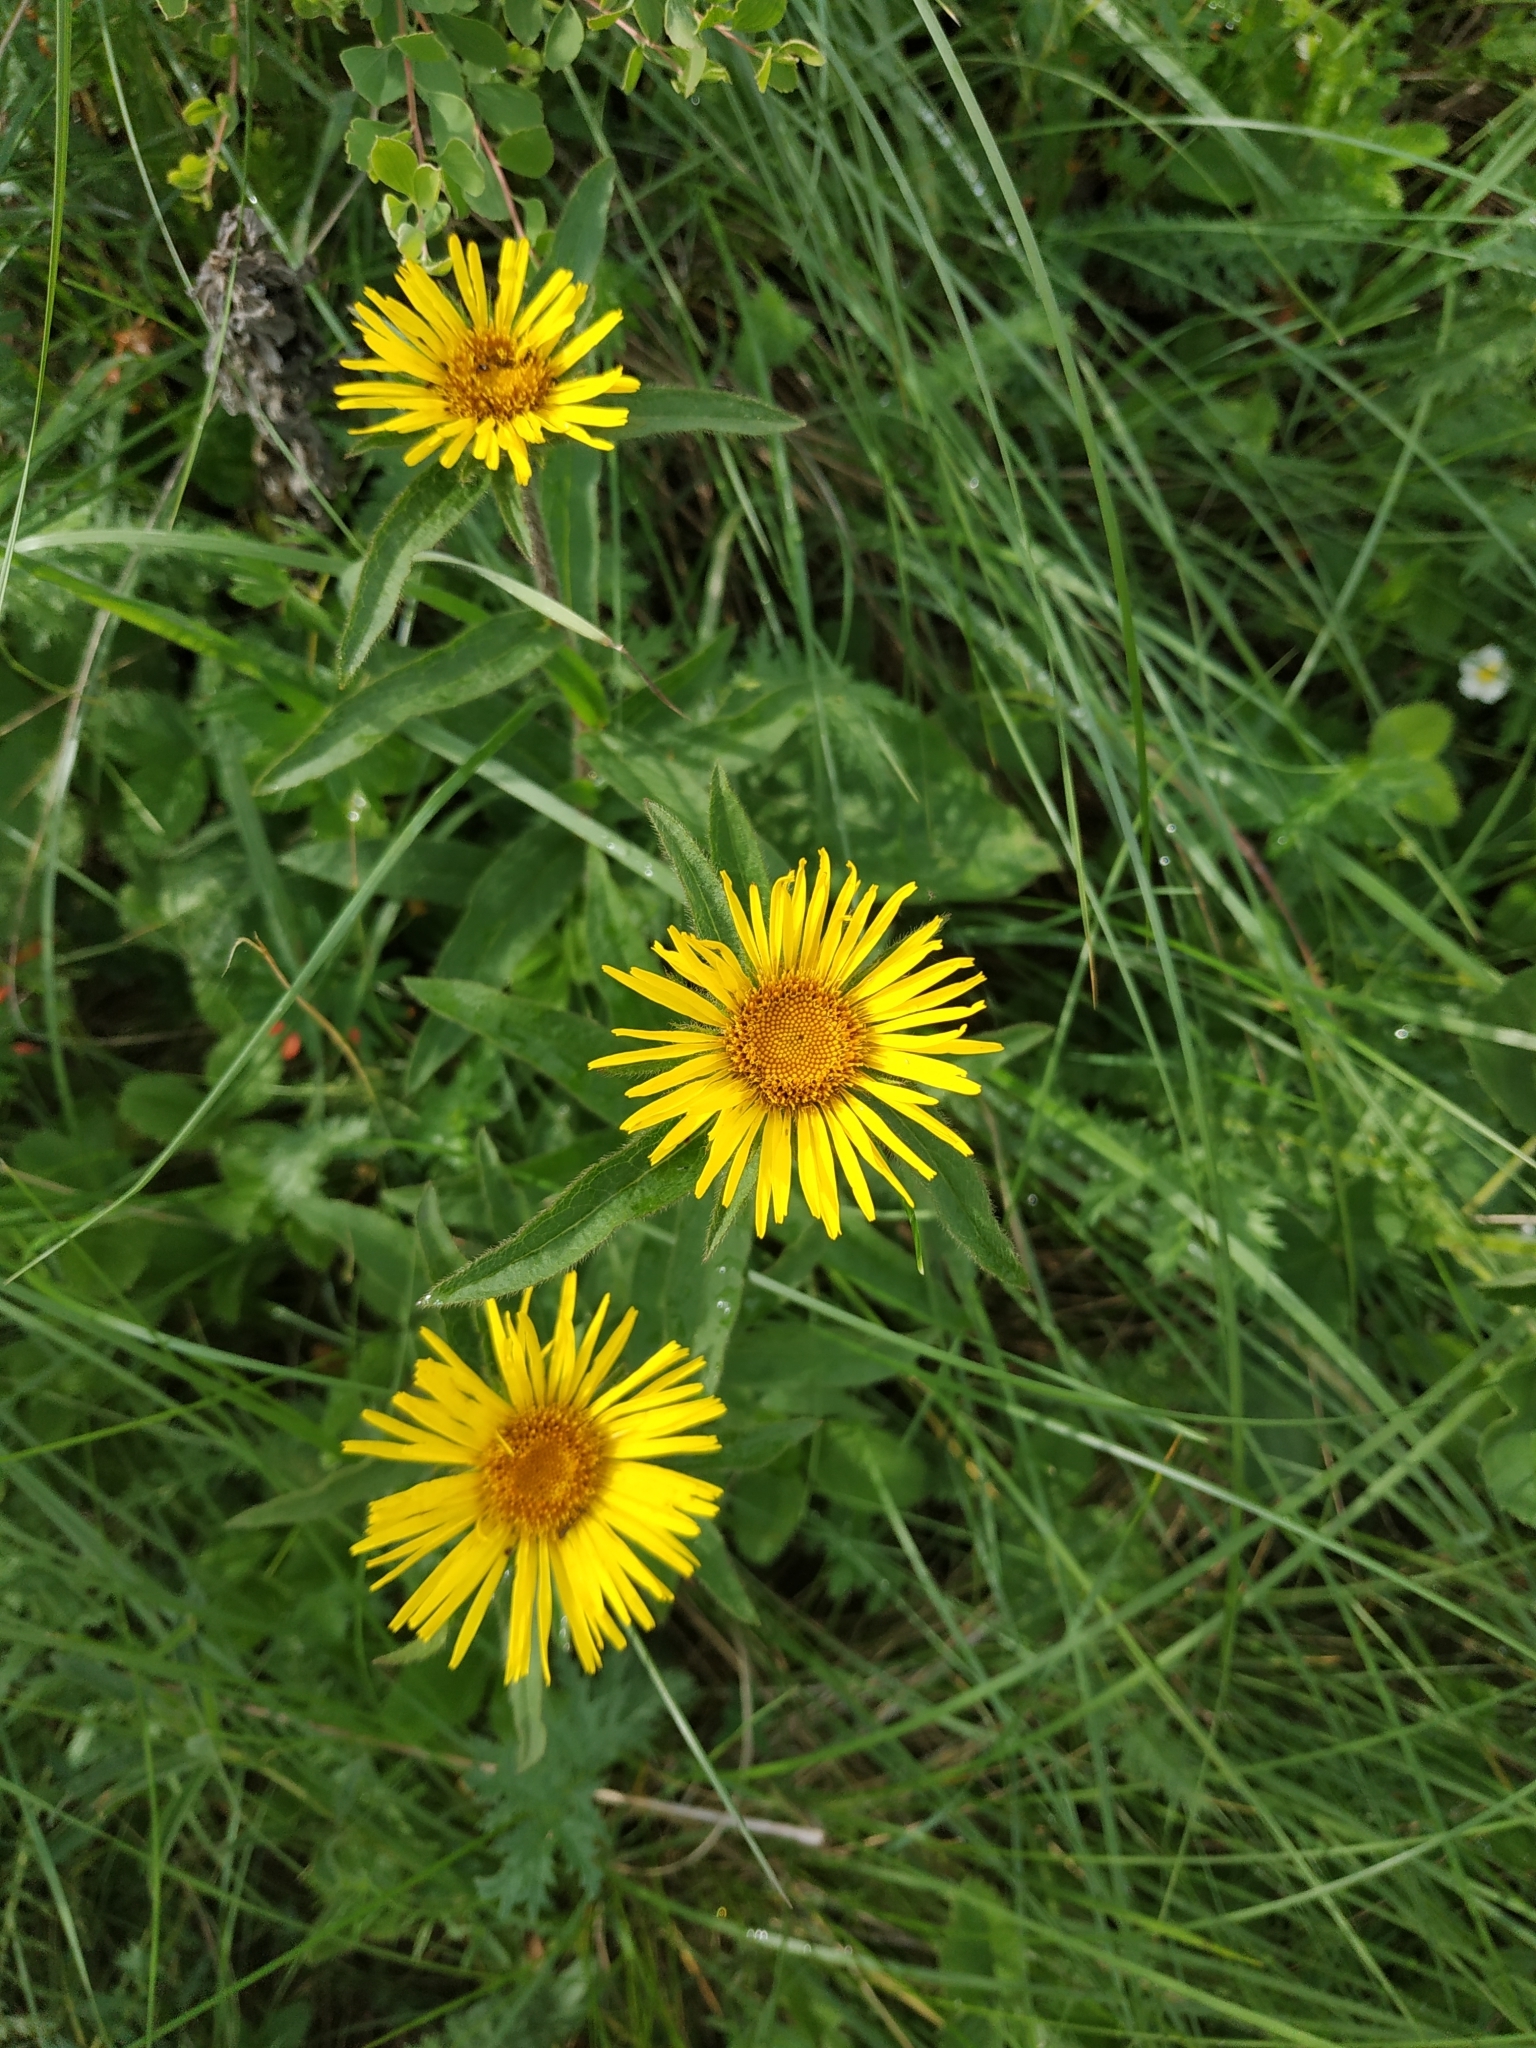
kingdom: Plantae
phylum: Tracheophyta
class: Magnoliopsida
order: Asterales
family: Asteraceae
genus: Pentanema
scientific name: Pentanema hirtum
